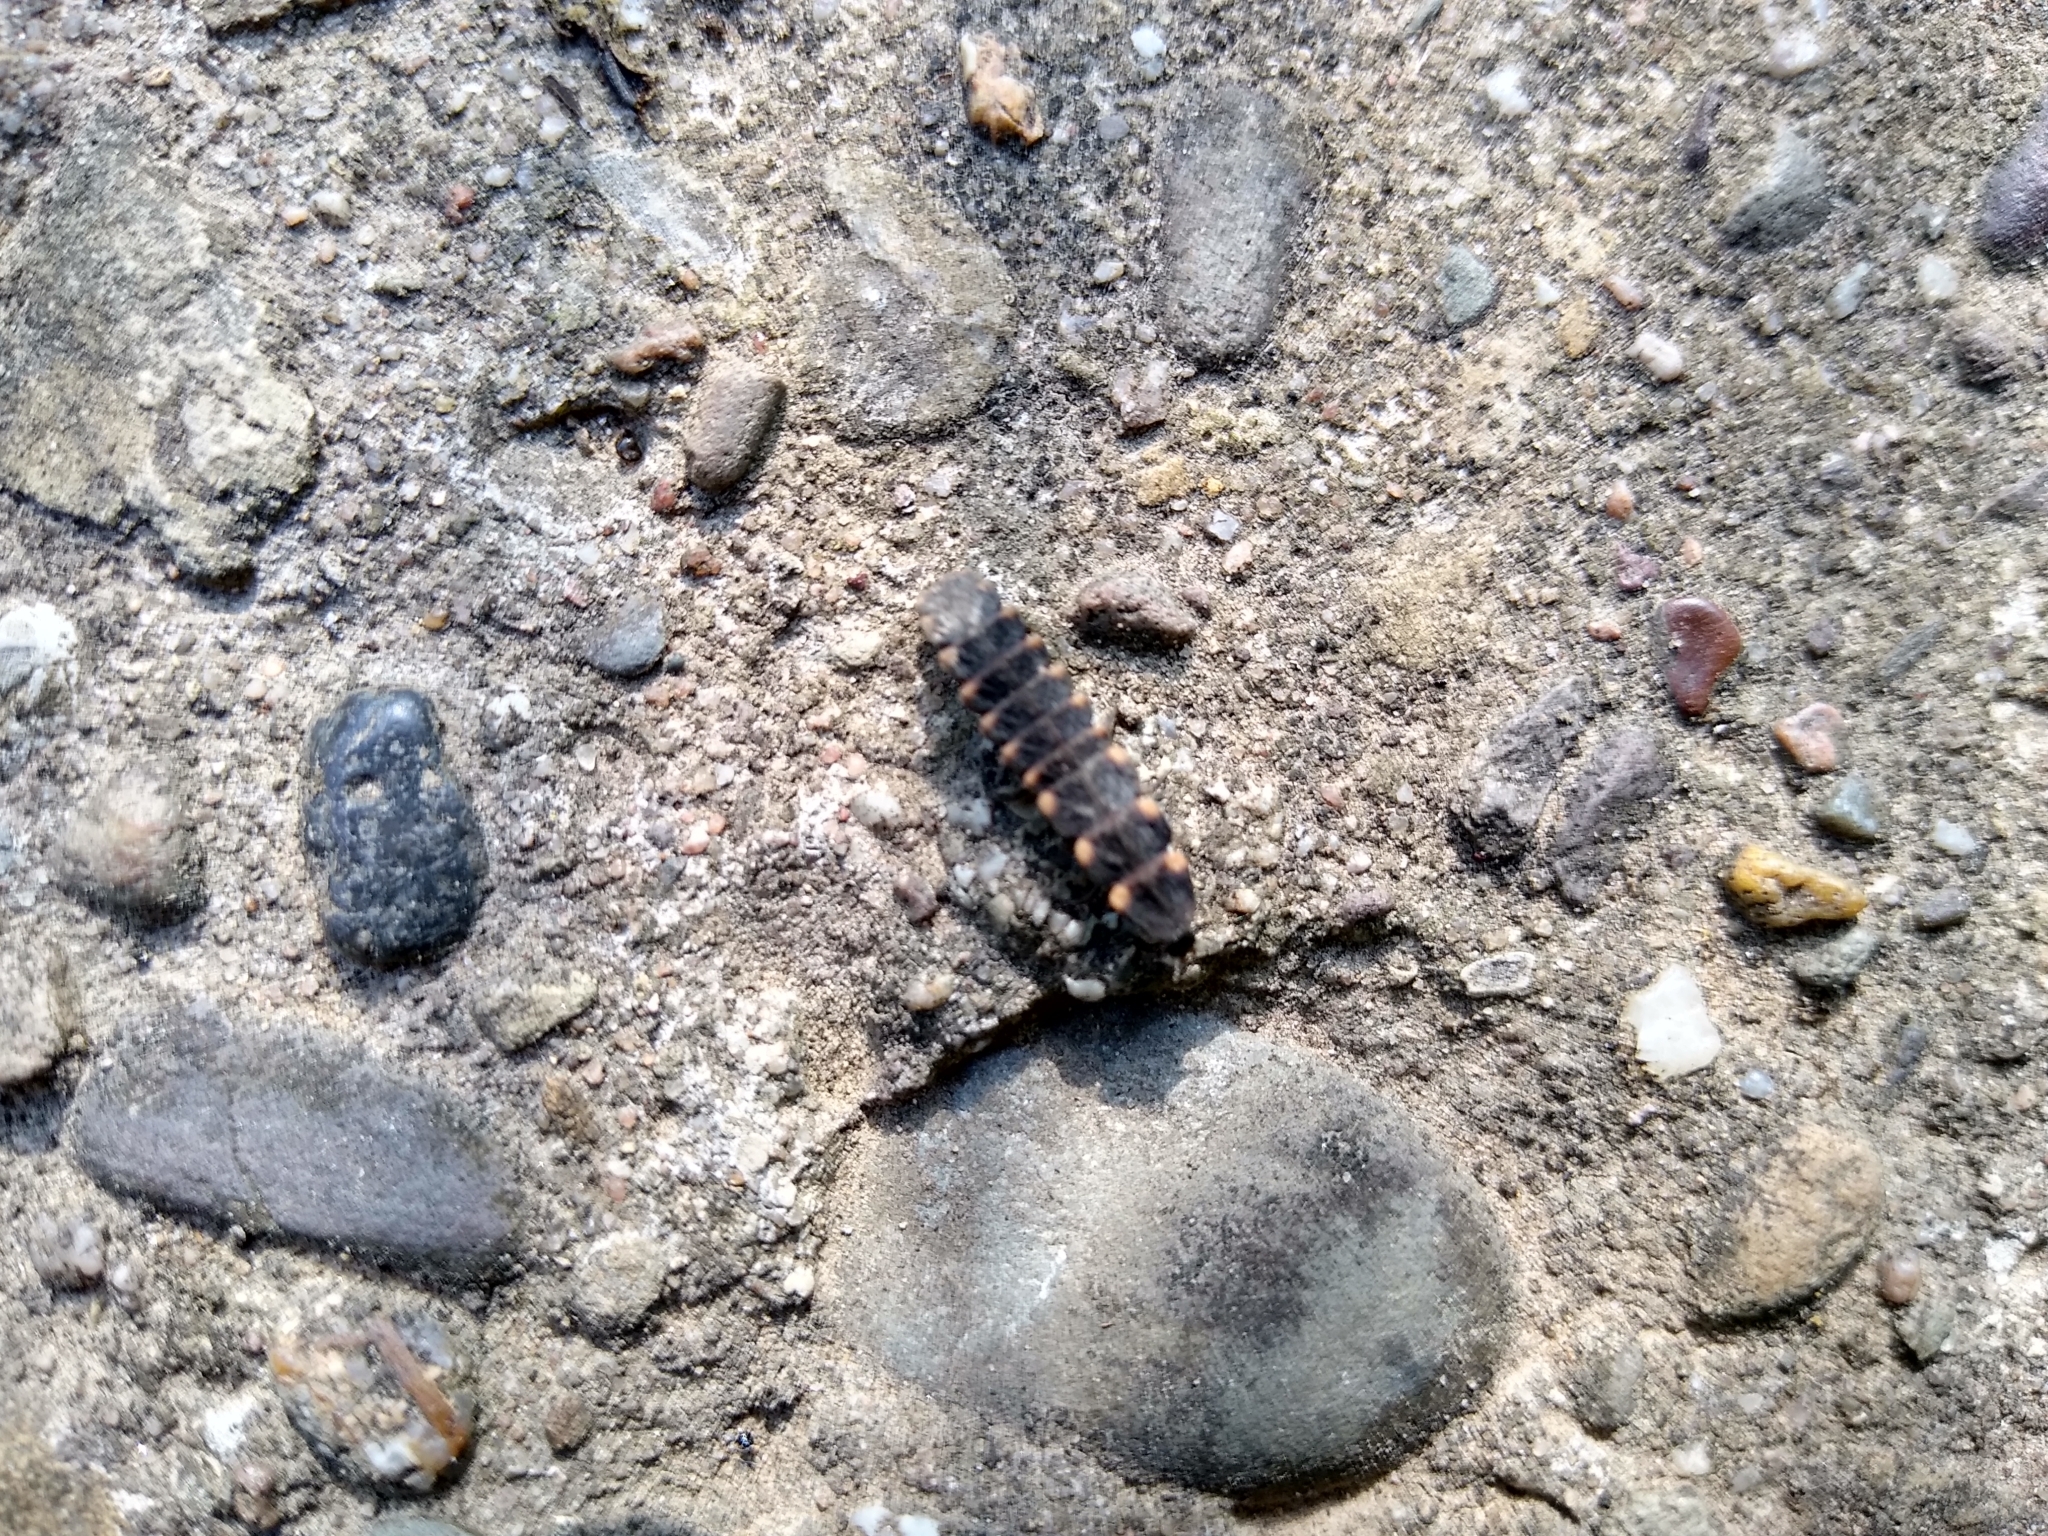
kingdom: Animalia
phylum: Arthropoda
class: Insecta
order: Coleoptera
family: Lampyridae
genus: Lampyris
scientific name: Lampyris noctiluca
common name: Glow-worm
